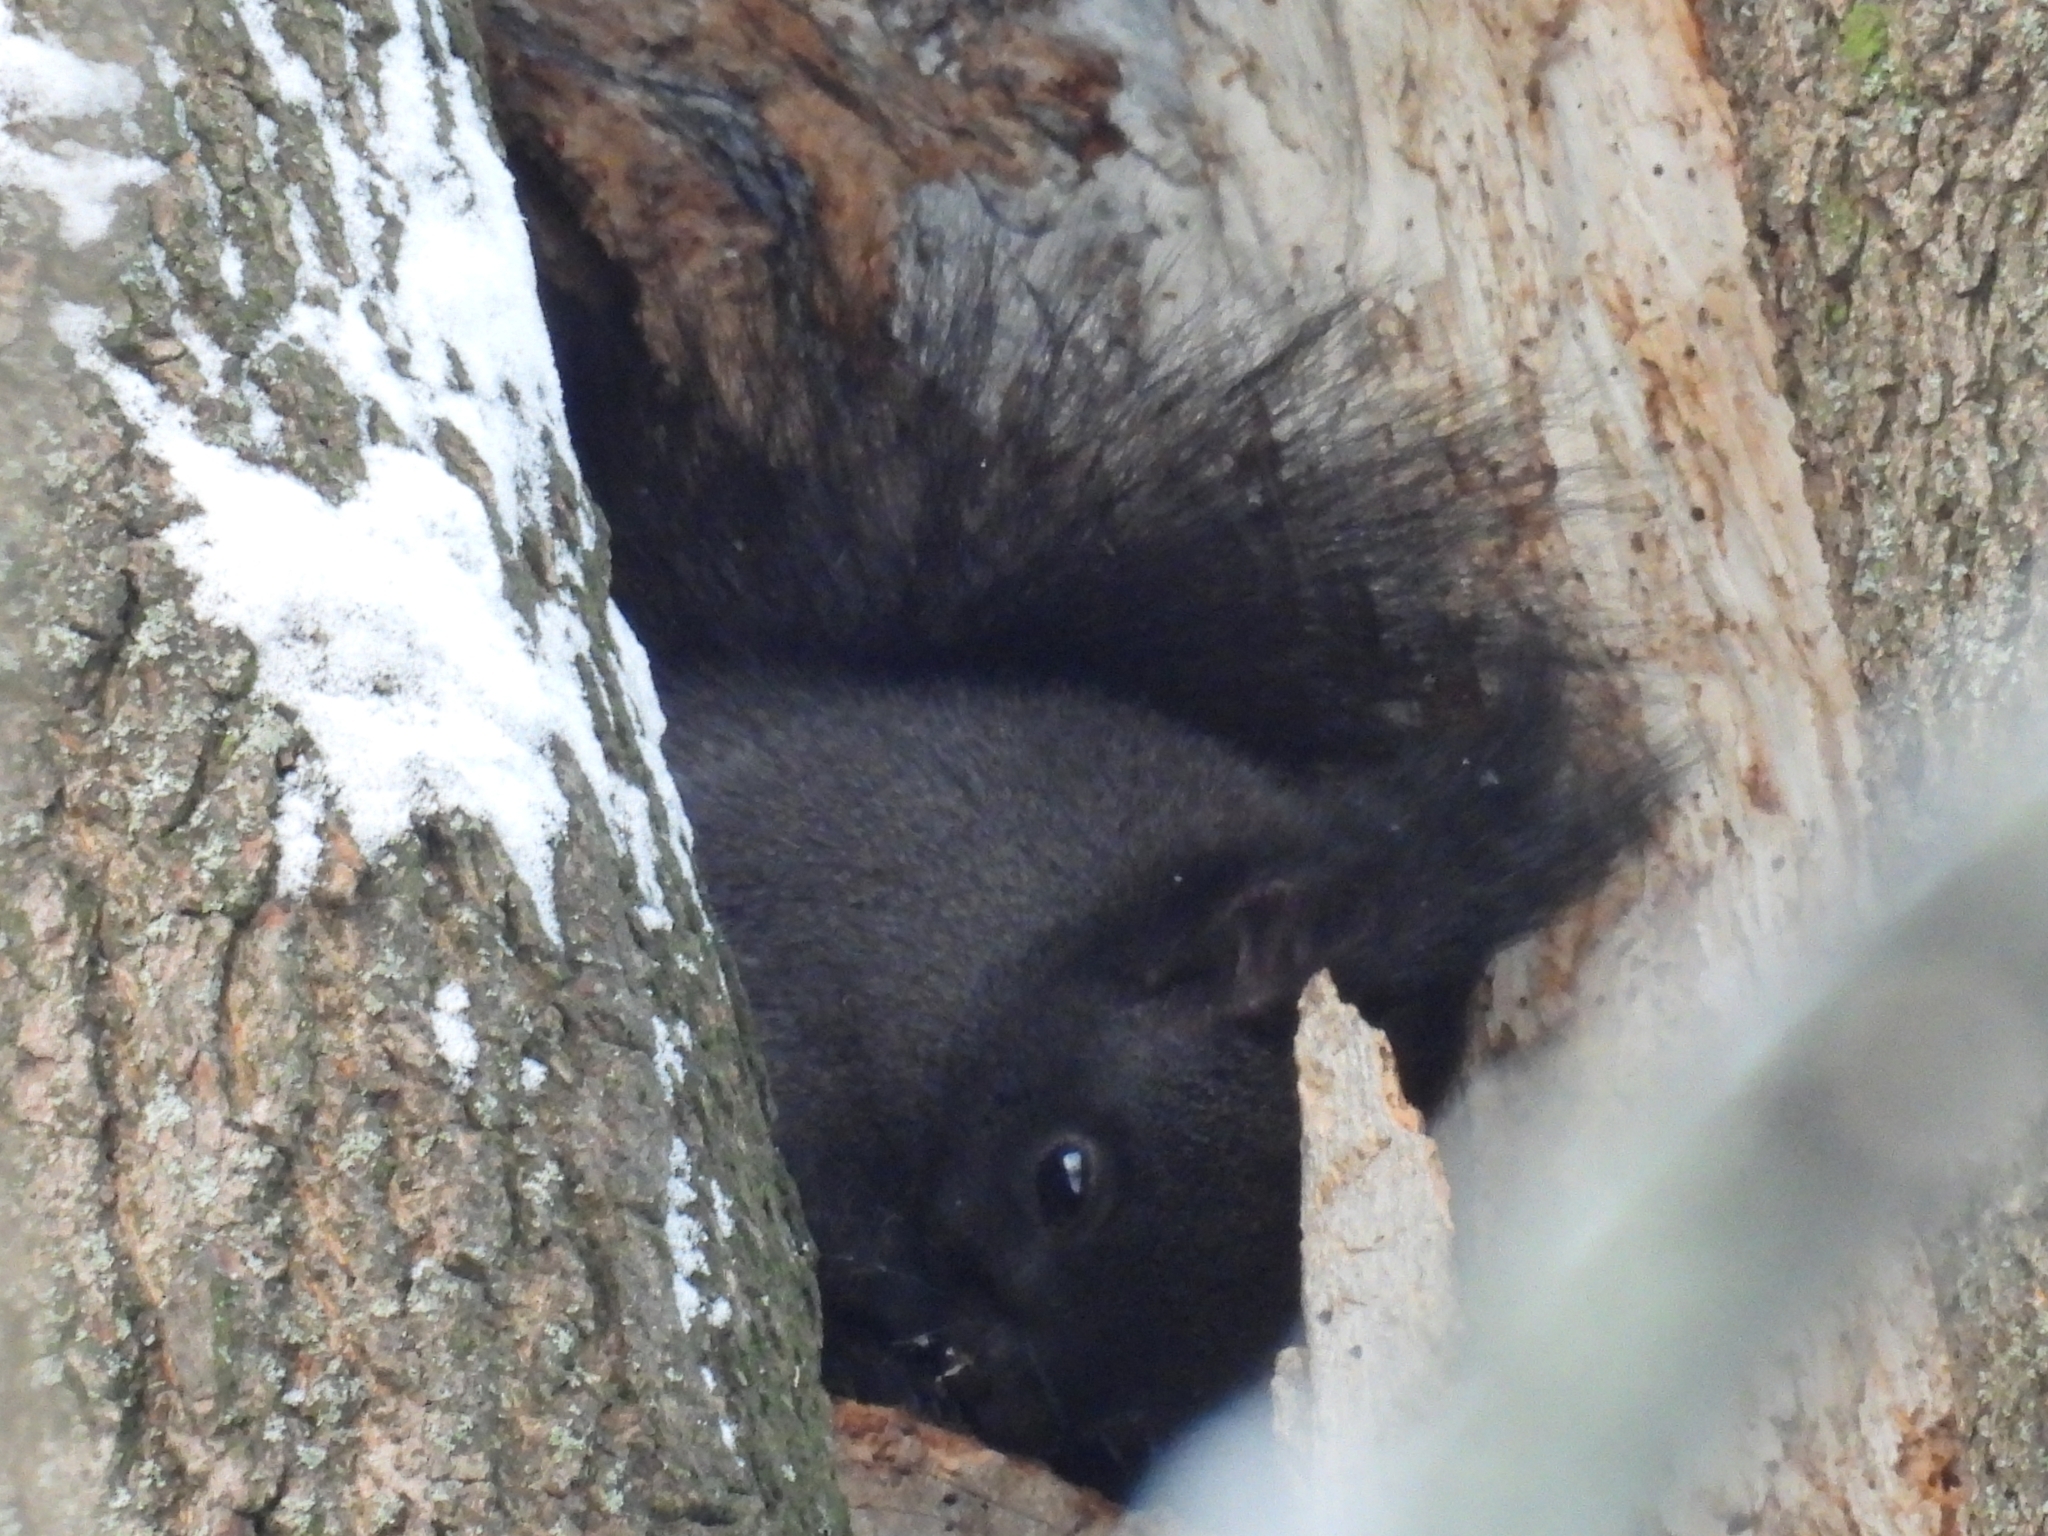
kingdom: Animalia
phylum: Chordata
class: Mammalia
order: Rodentia
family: Sciuridae
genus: Sciurus
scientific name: Sciurus vulgaris
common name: Eurasian red squirrel
